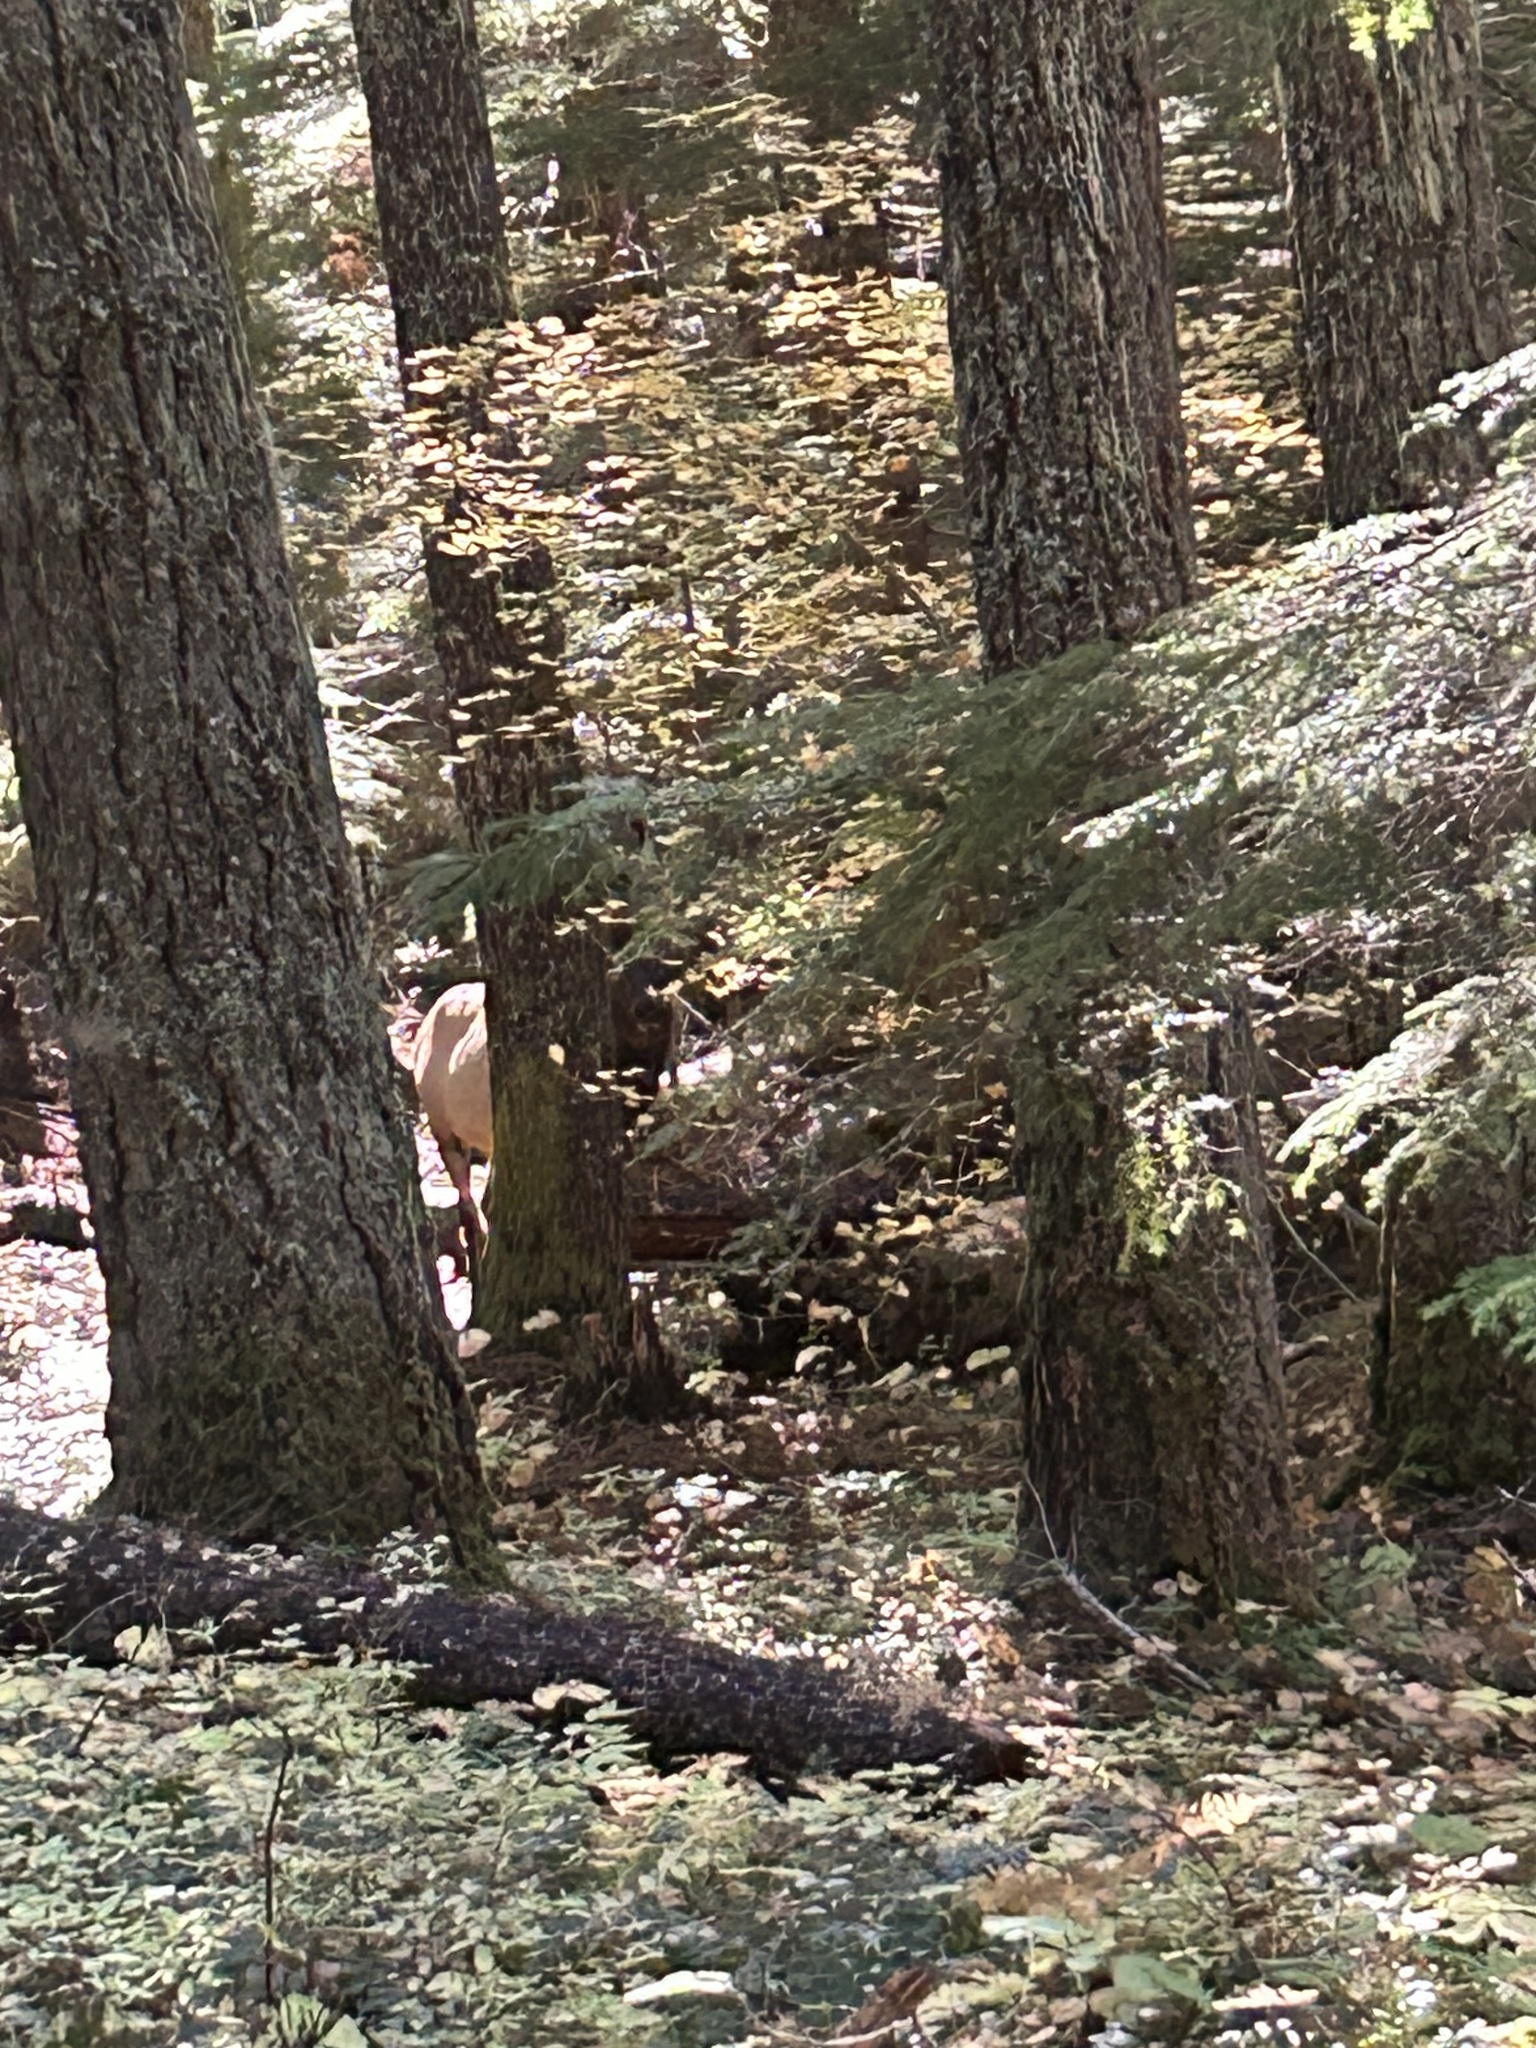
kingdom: Animalia
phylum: Chordata
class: Mammalia
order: Artiodactyla
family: Cervidae
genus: Cervus
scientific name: Cervus elaphus
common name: Red deer
